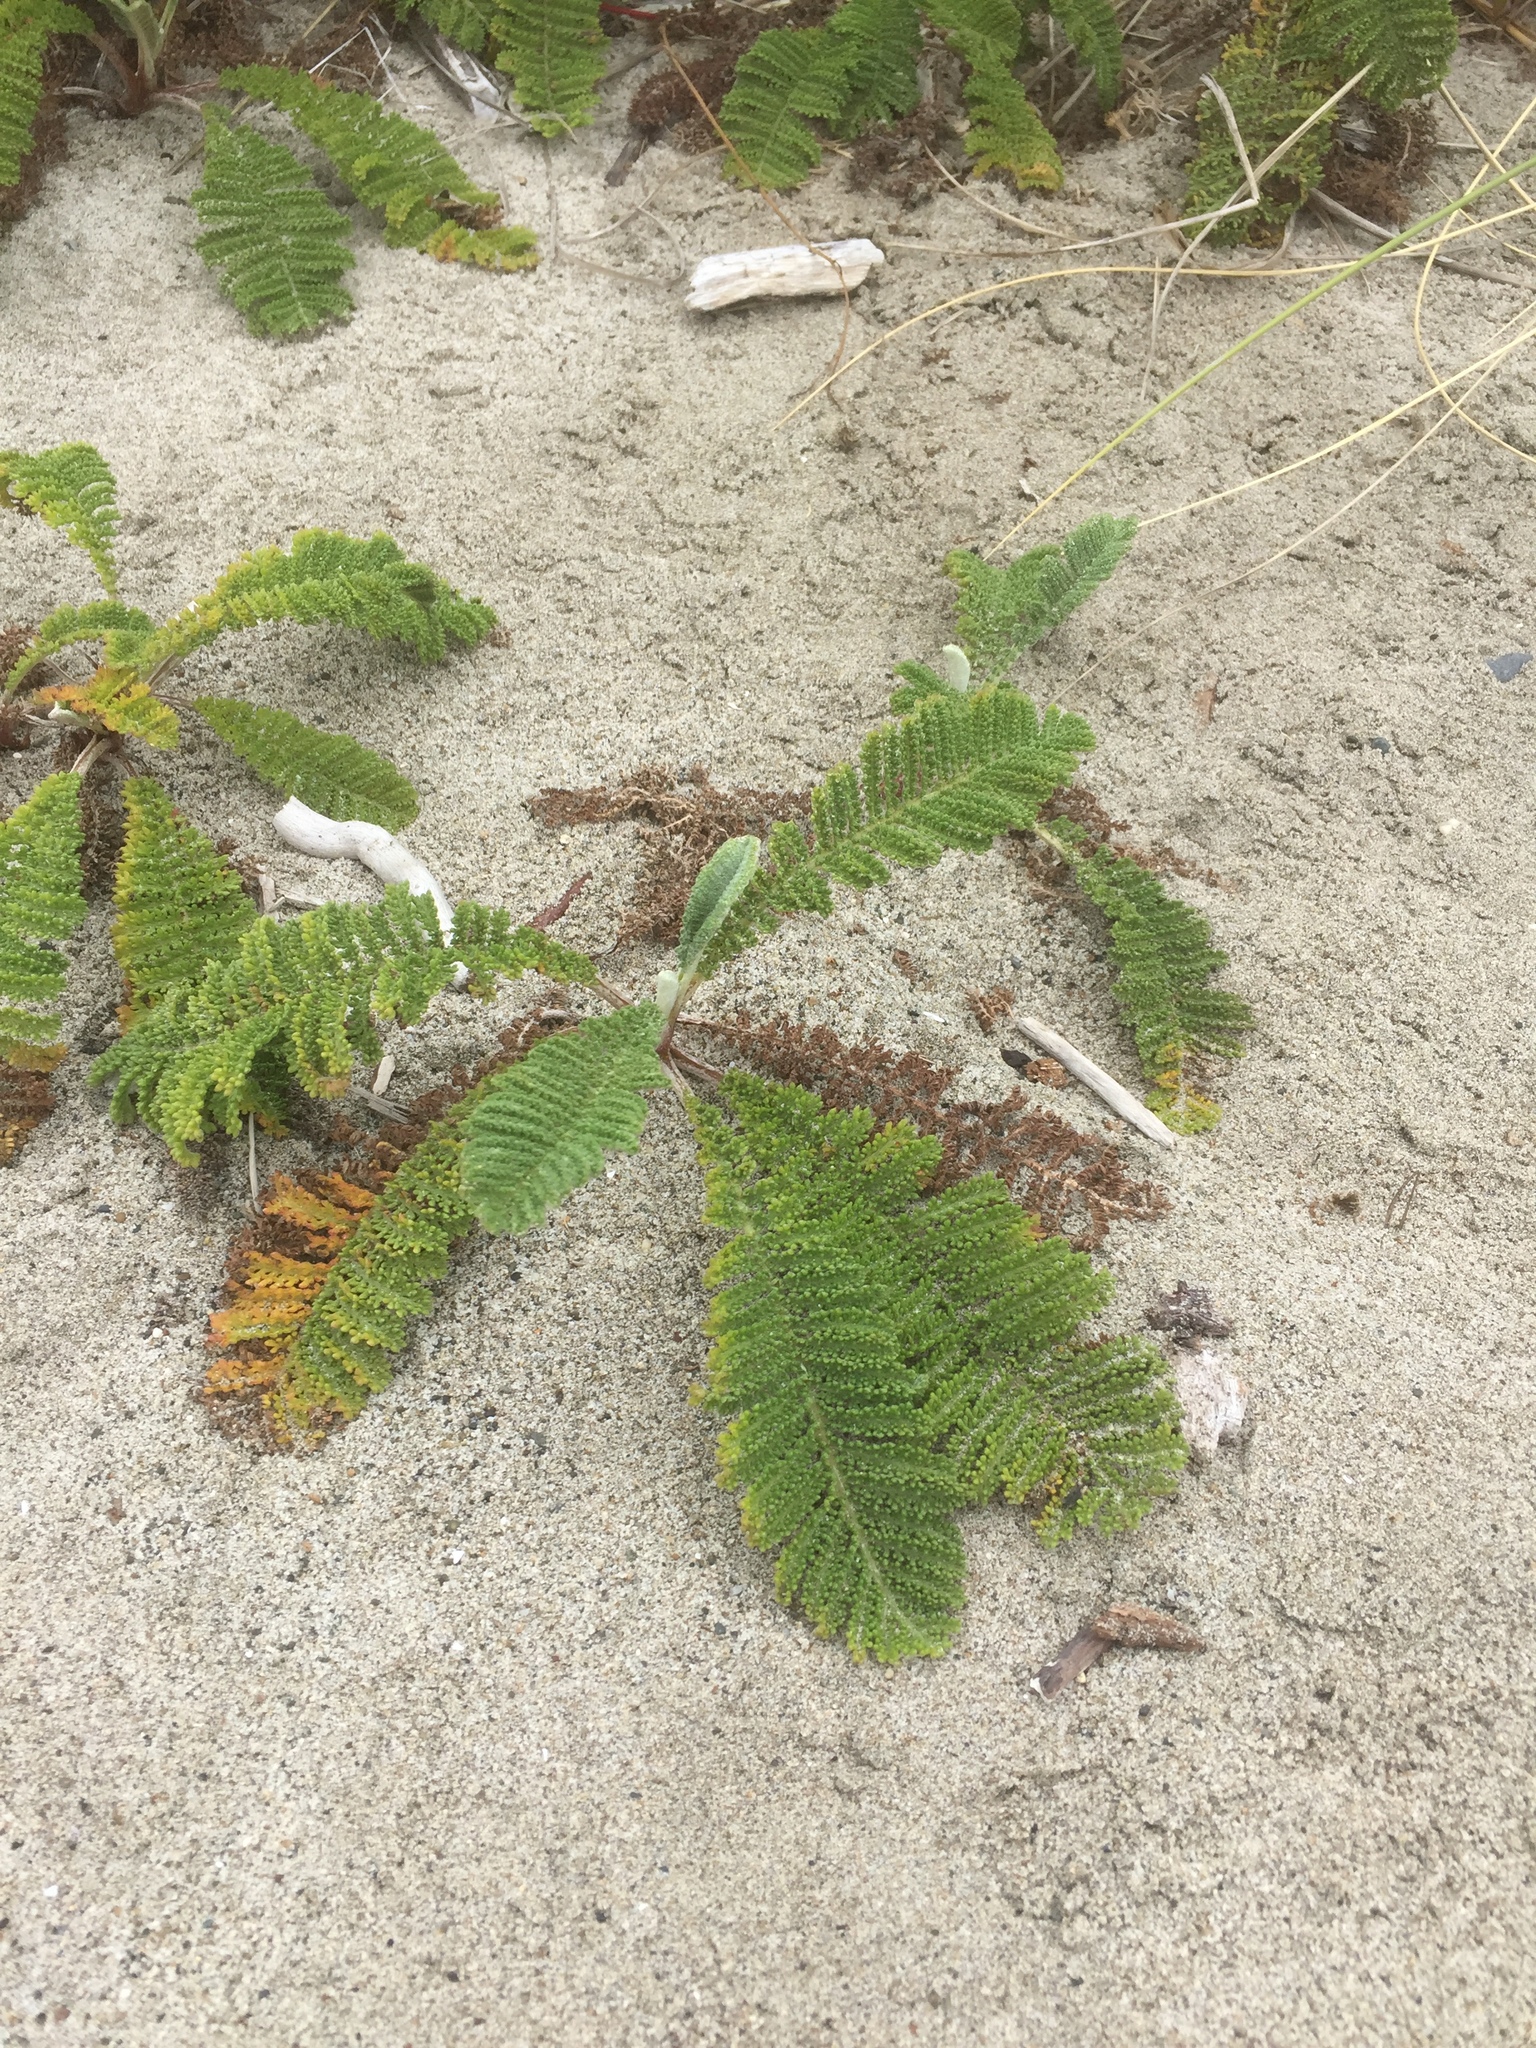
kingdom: Plantae
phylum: Tracheophyta
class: Magnoliopsida
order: Asterales
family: Asteraceae
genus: Tanacetum
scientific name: Tanacetum bipinnatum
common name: Dwarf tansy
